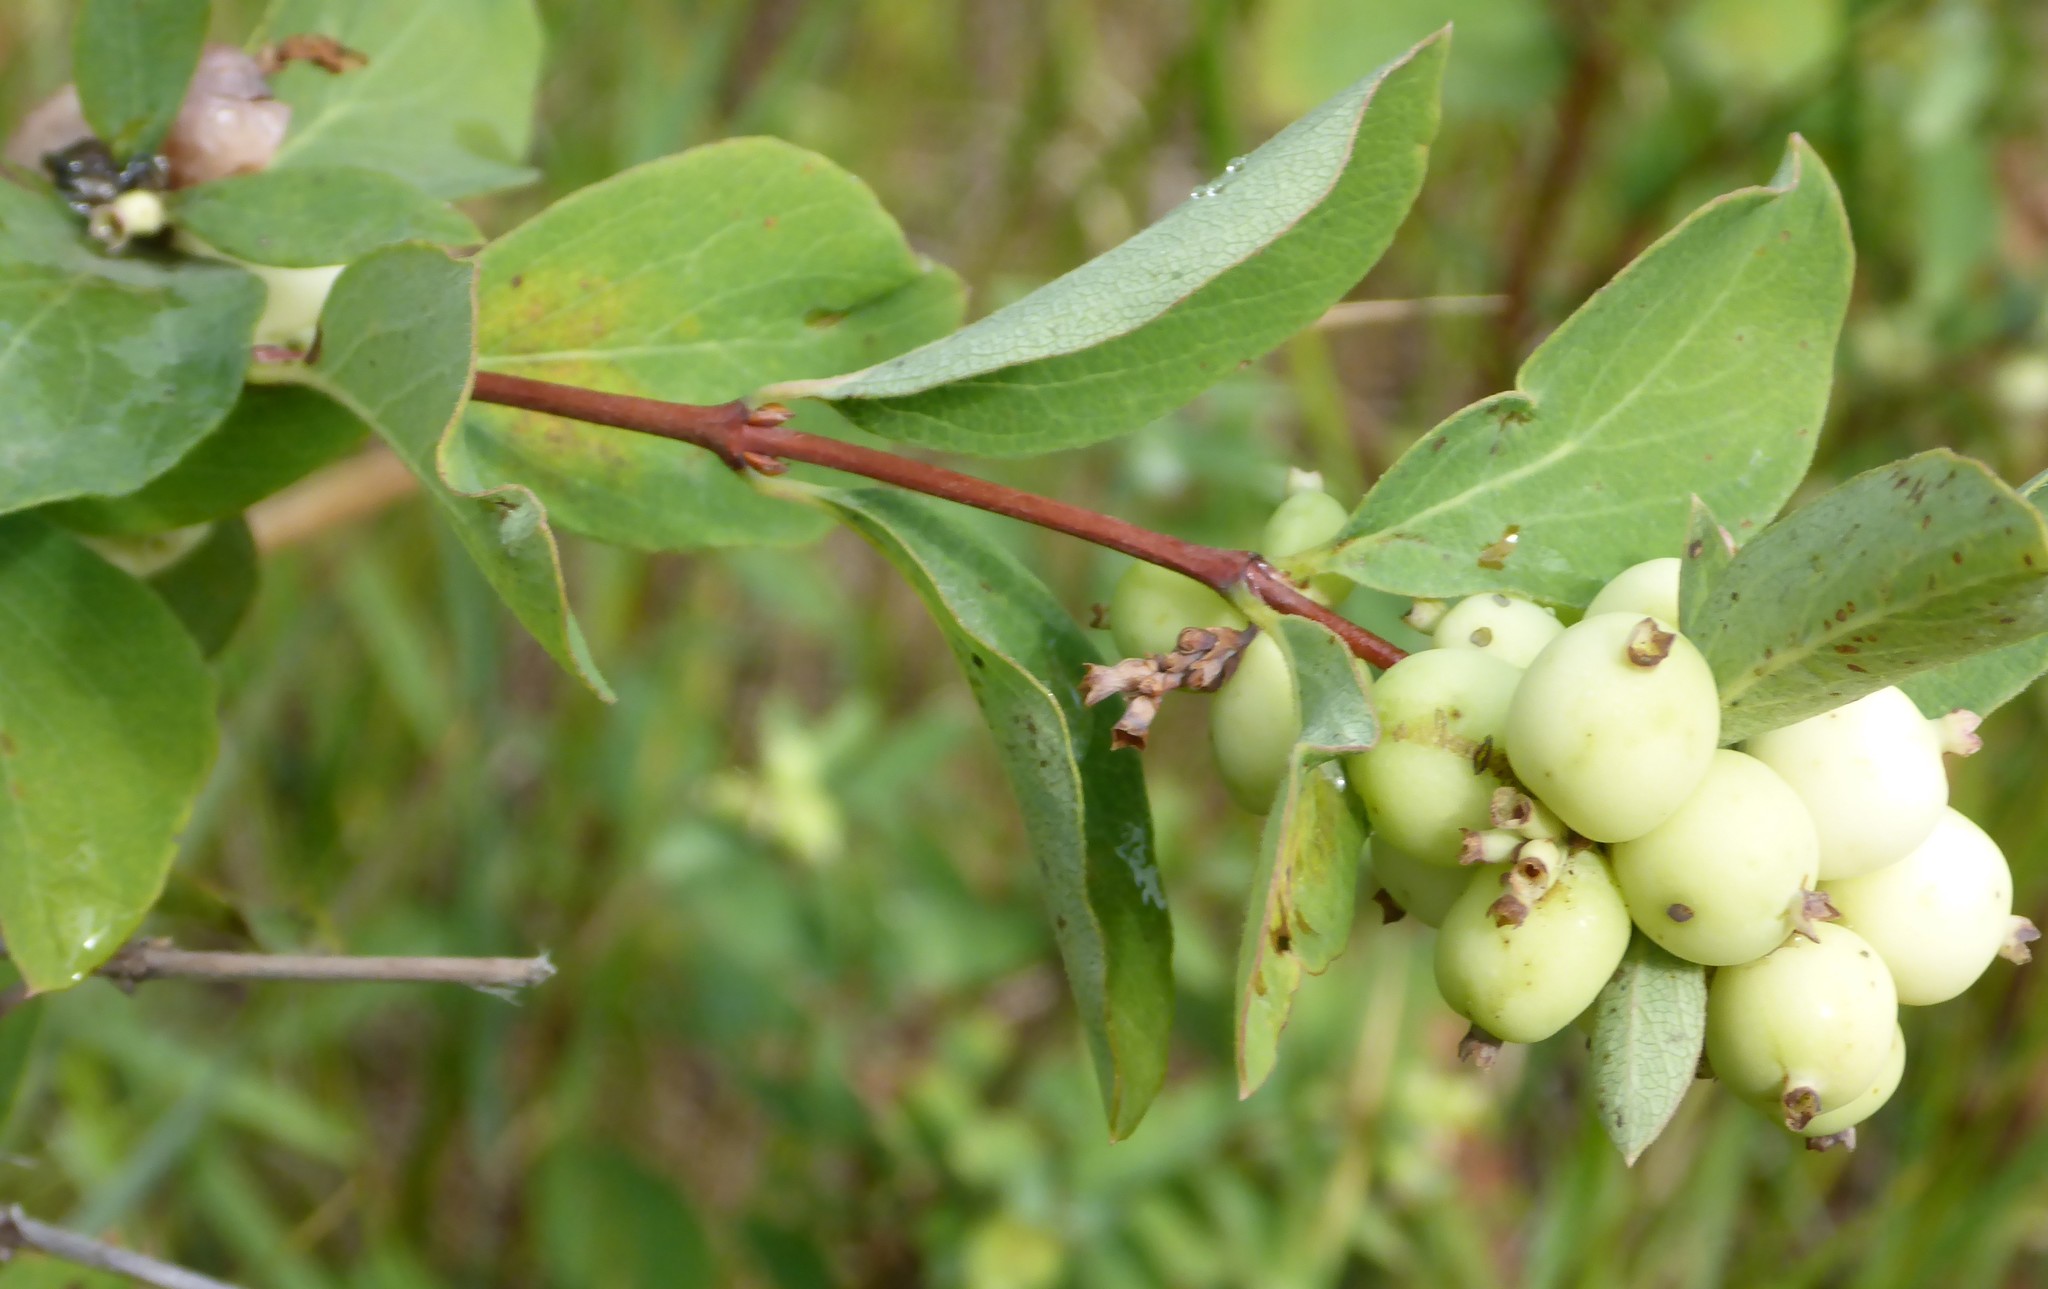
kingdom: Plantae
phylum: Tracheophyta
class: Magnoliopsida
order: Dipsacales
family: Caprifoliaceae
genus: Symphoricarpos
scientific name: Symphoricarpos albus
